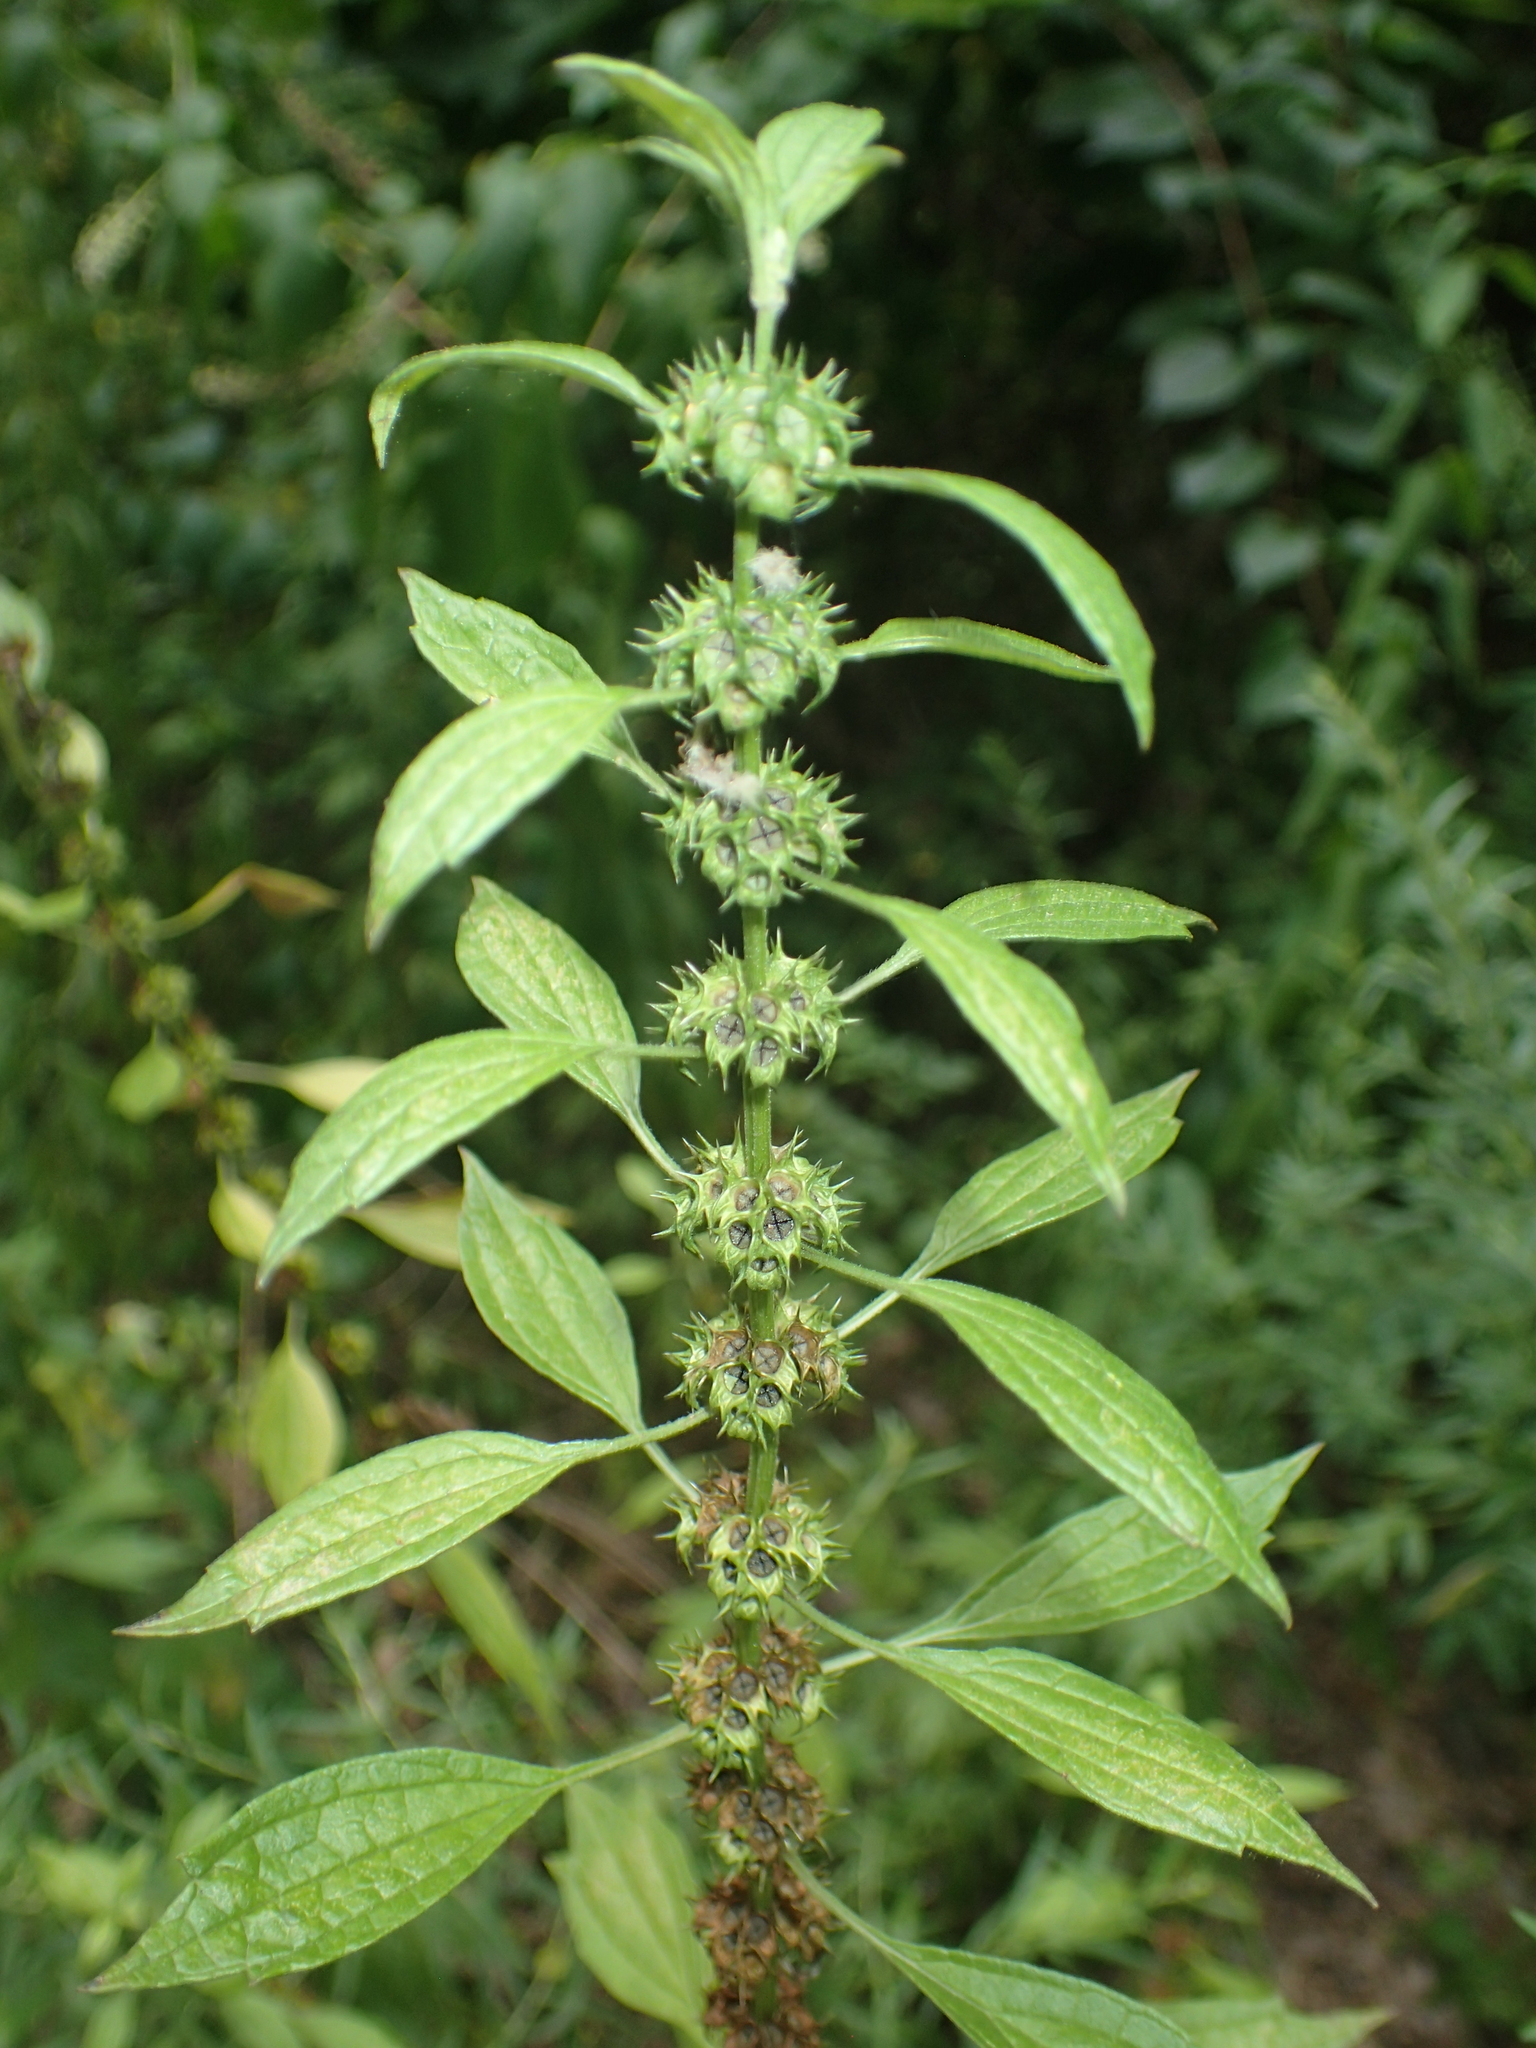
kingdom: Plantae
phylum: Tracheophyta
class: Magnoliopsida
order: Lamiales
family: Lamiaceae
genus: Leonurus
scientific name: Leonurus cardiaca
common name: Motherwort
